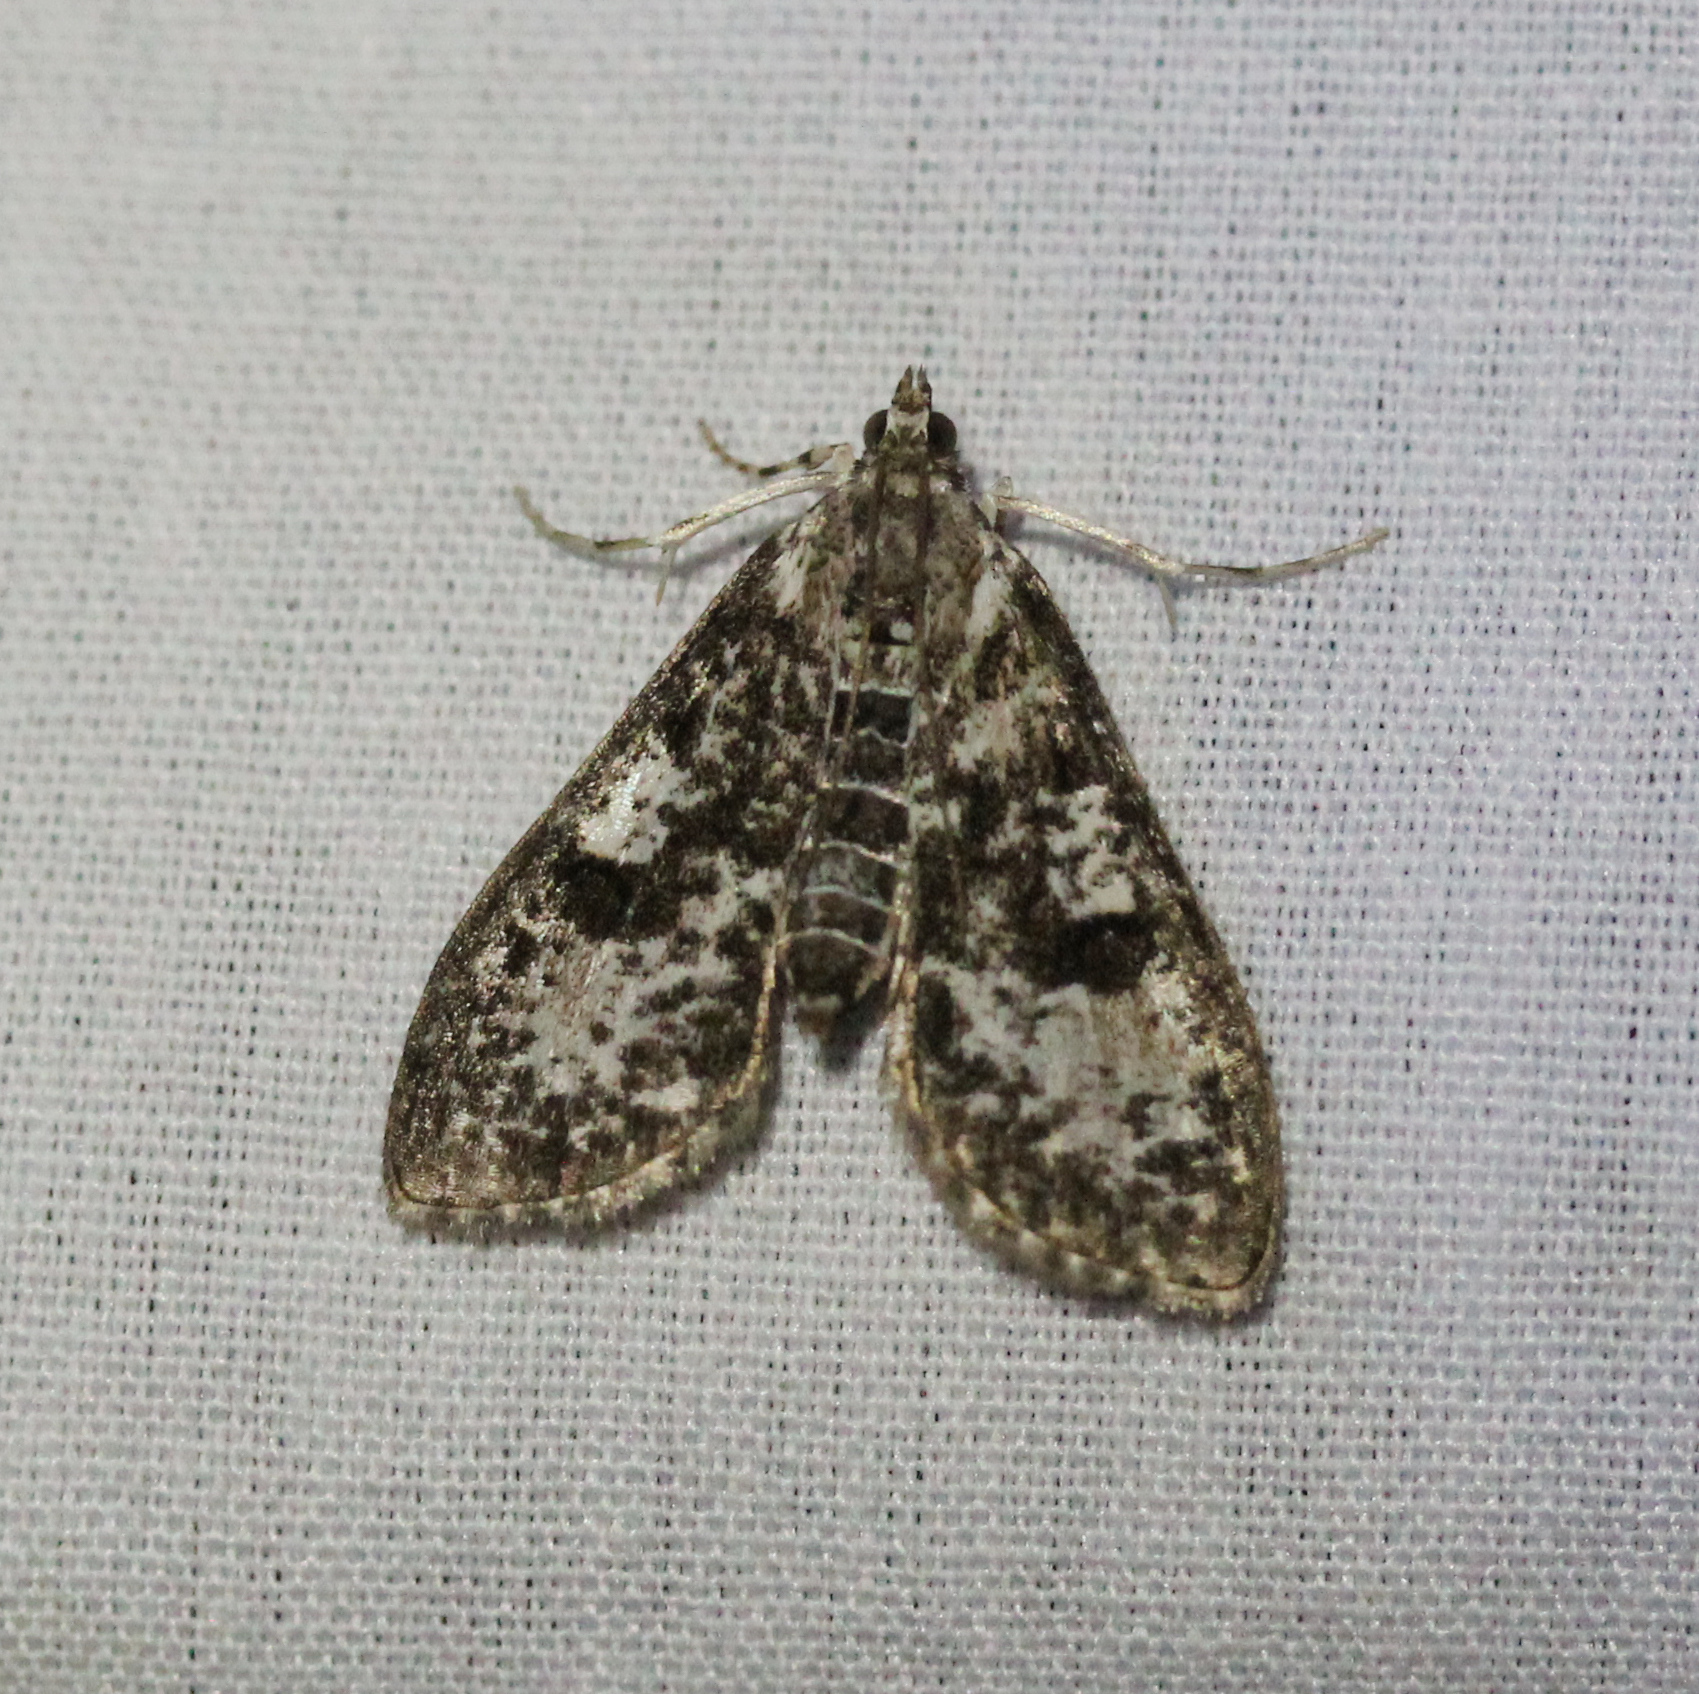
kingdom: Animalia
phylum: Arthropoda
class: Insecta
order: Lepidoptera
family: Crambidae
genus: Palpita
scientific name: Palpita magniferalis
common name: Splendid palpita moth
